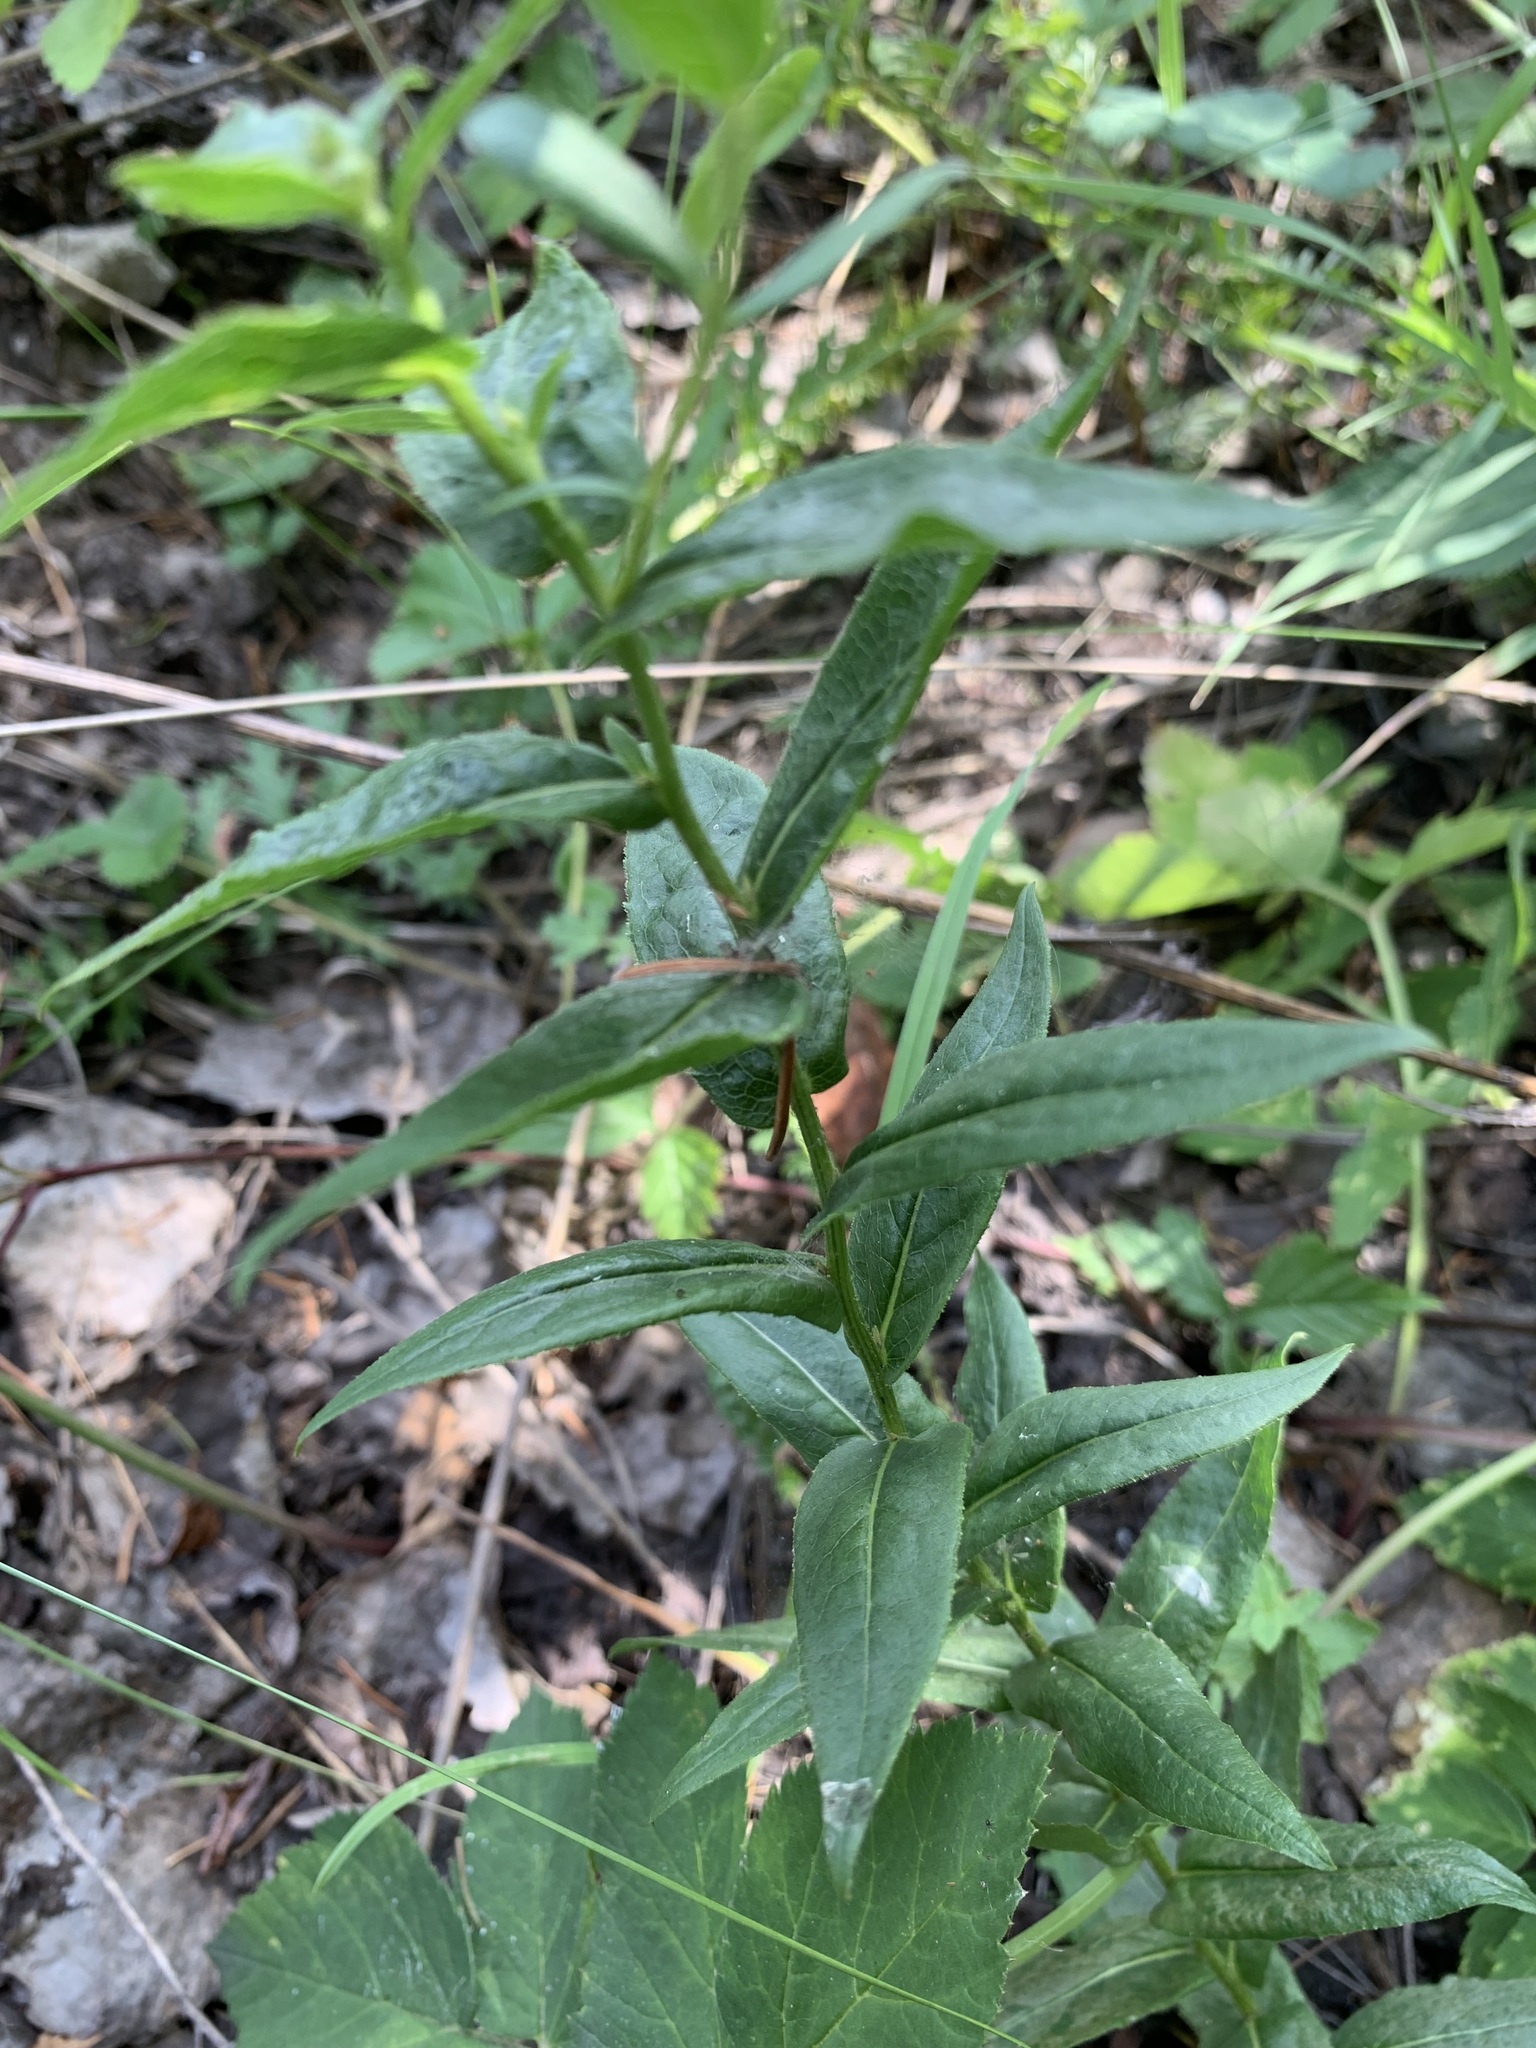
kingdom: Plantae
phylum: Tracheophyta
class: Magnoliopsida
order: Asterales
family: Asteraceae
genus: Pentanema
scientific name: Pentanema salicinum
